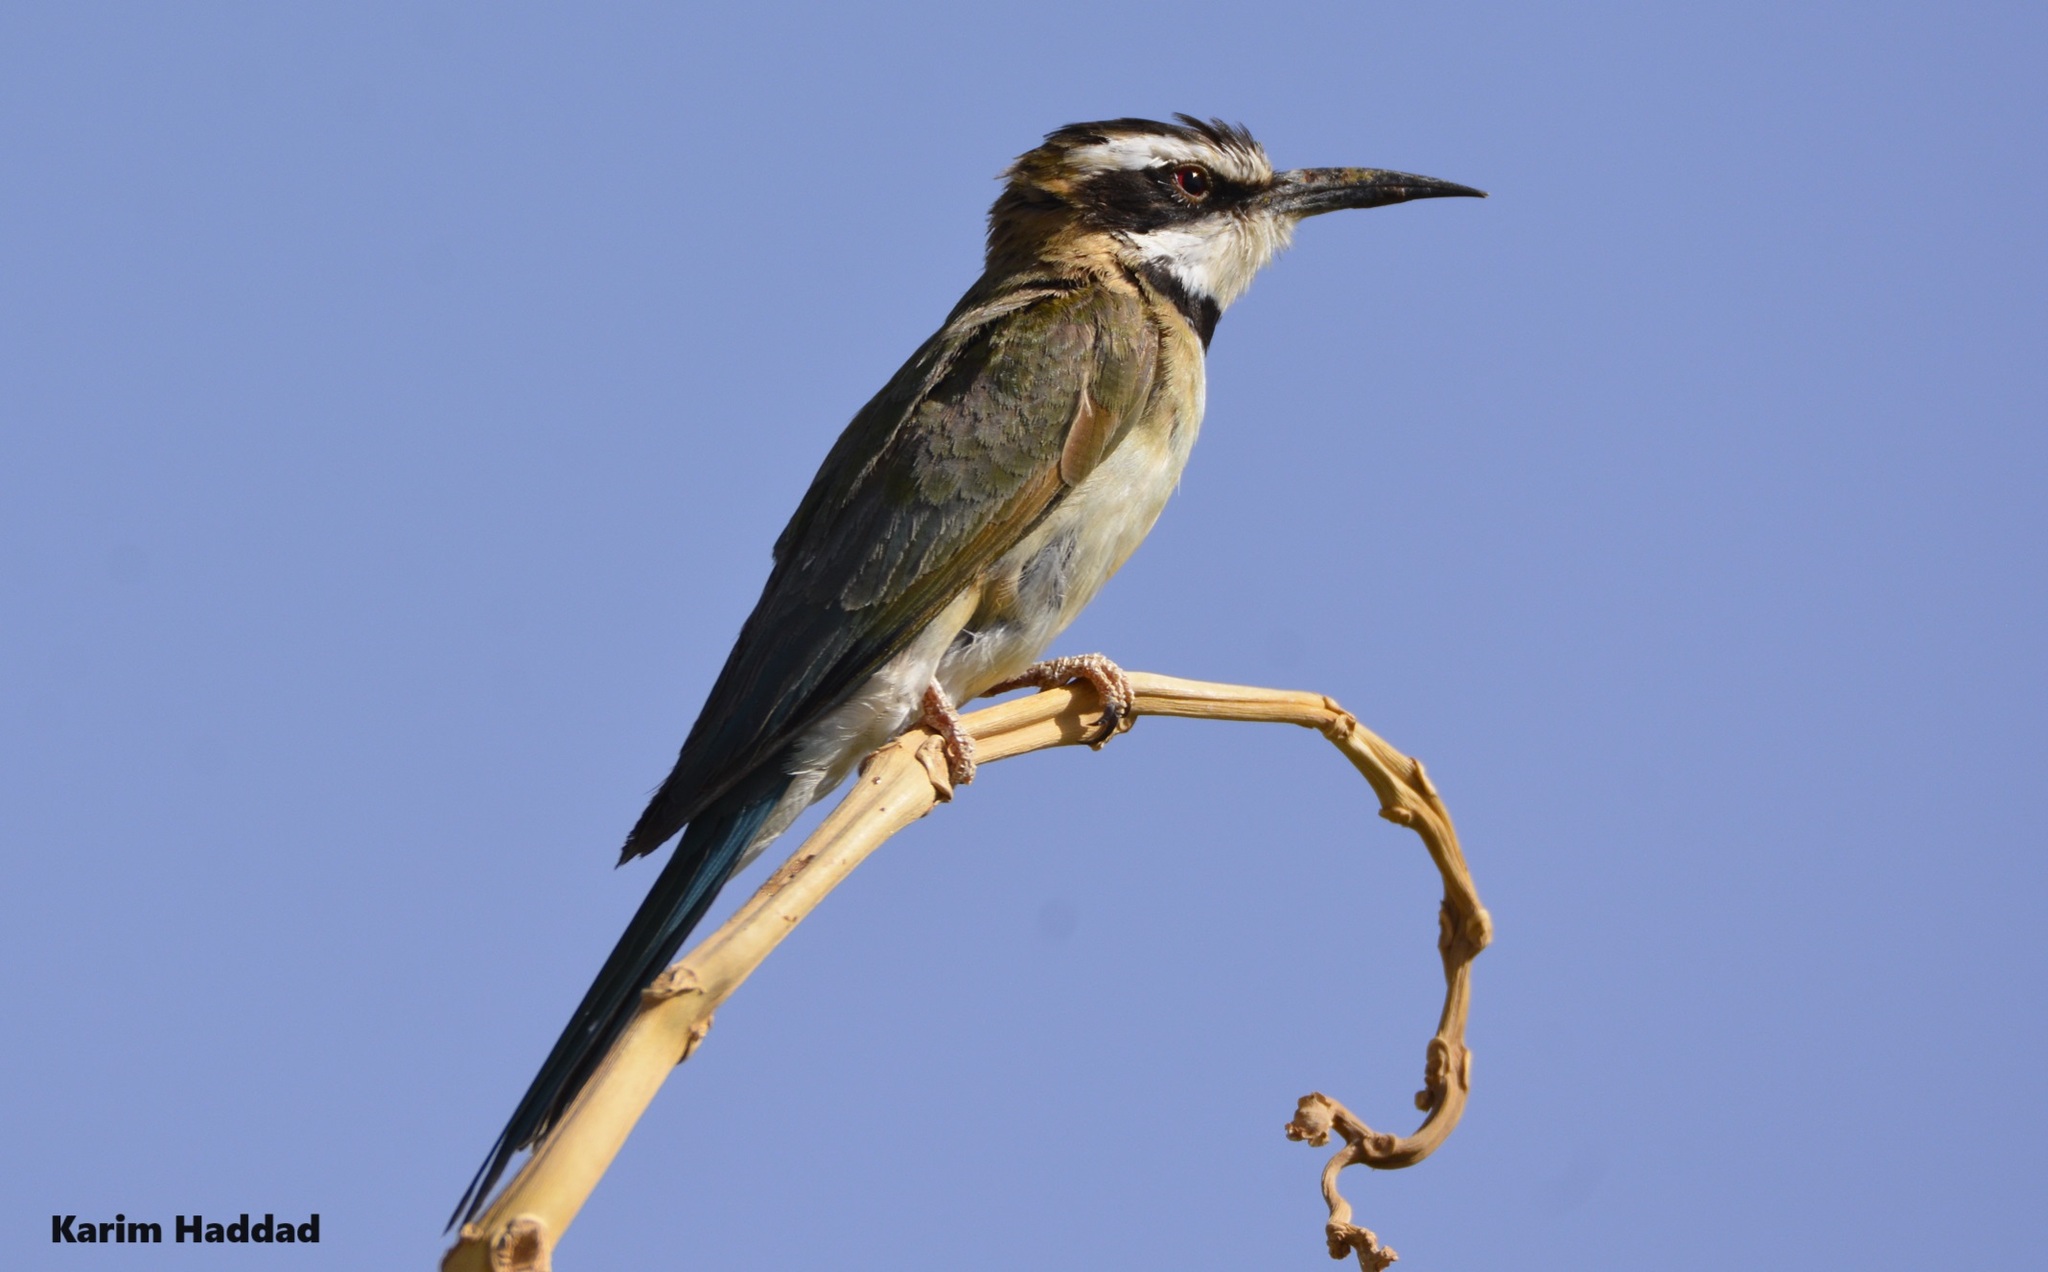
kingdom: Animalia
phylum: Chordata
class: Aves
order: Coraciiformes
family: Meropidae
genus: Merops
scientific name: Merops albicollis
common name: White-throated bee-eater
